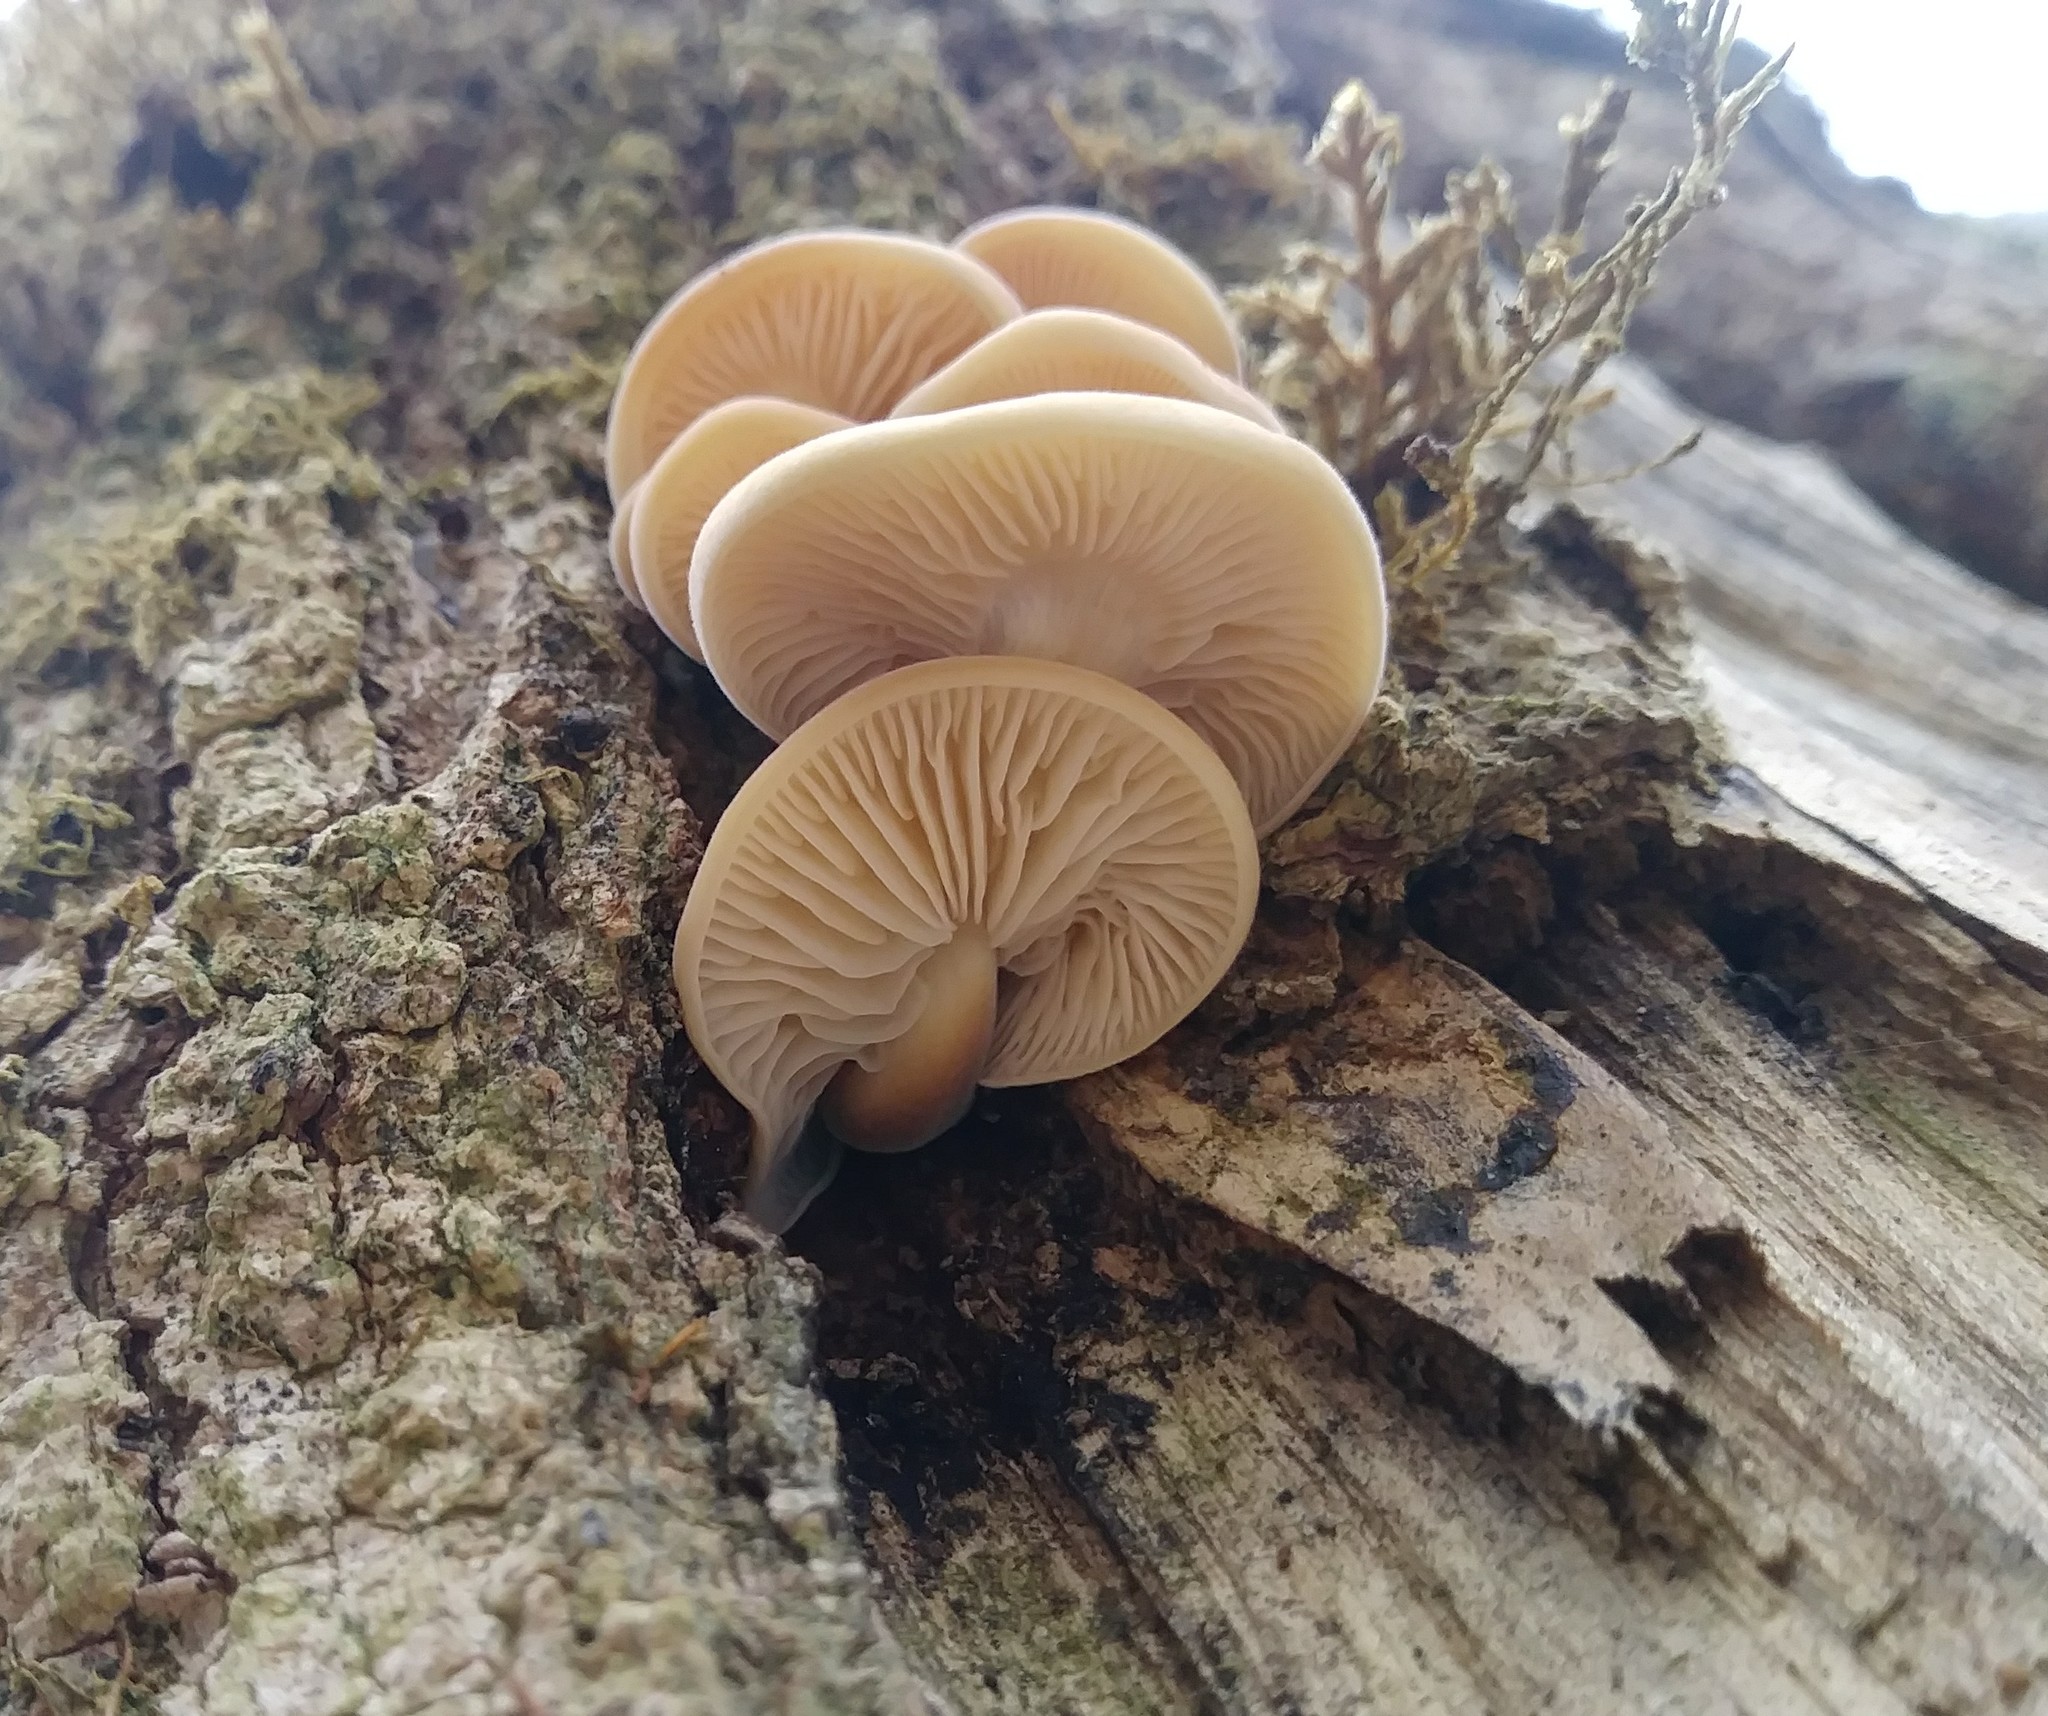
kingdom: Fungi
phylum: Basidiomycota
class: Agaricomycetes
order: Agaricales
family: Physalacriaceae
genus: Flammulina
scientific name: Flammulina velutipes
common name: Velvet shank
